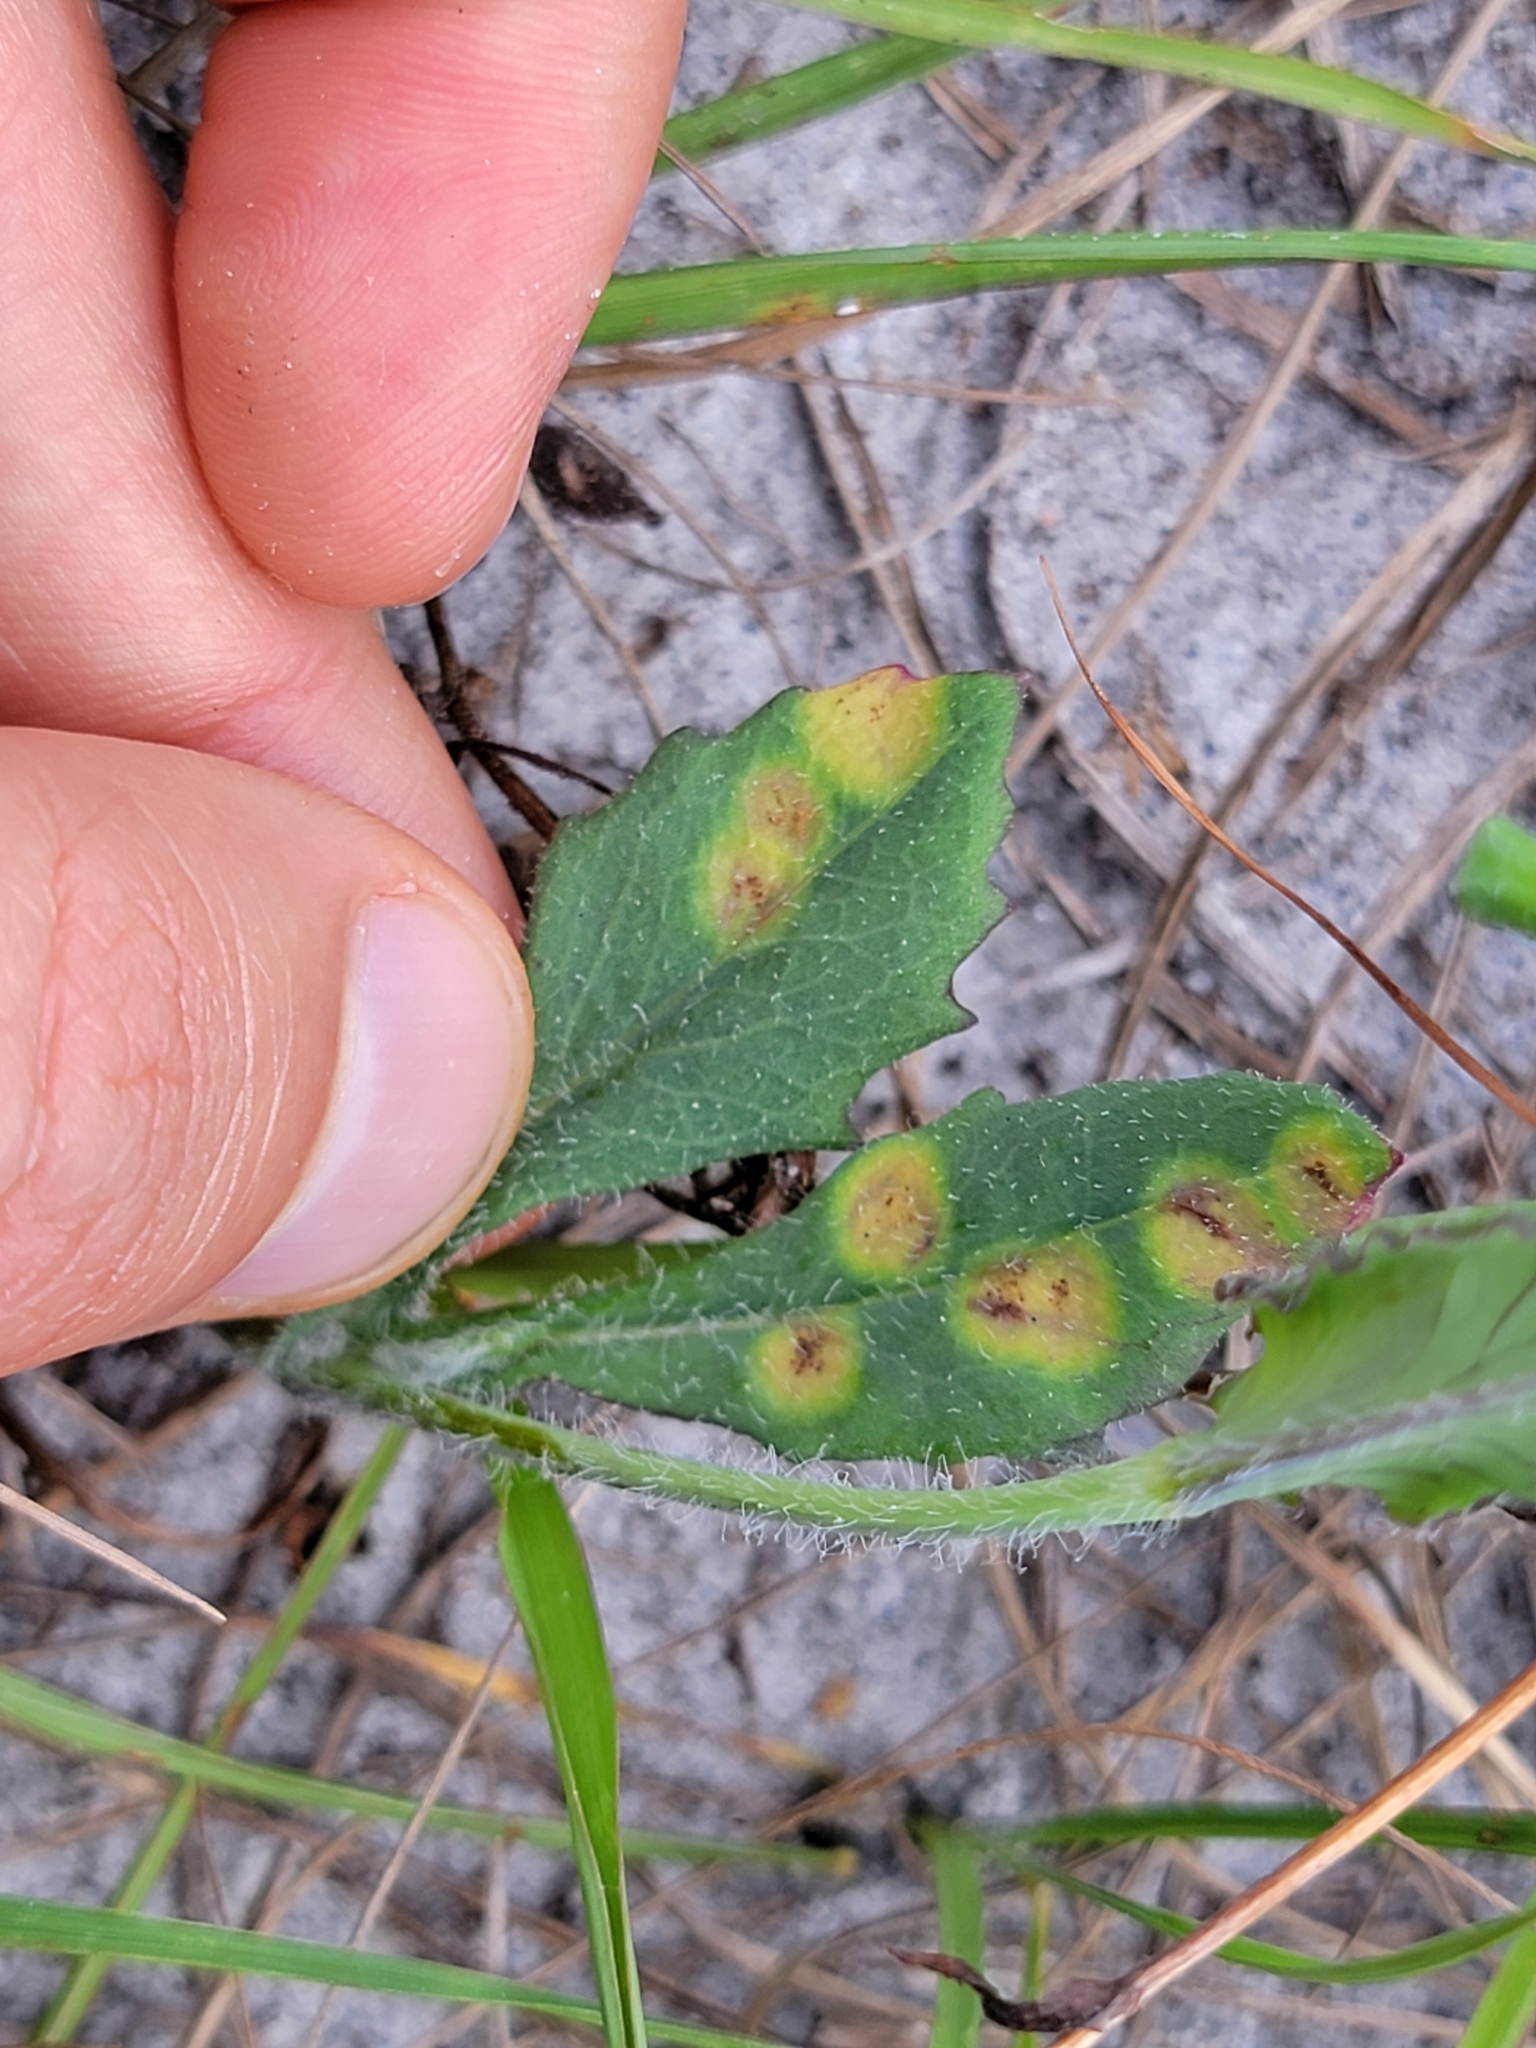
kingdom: Plantae
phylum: Tracheophyta
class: Magnoliopsida
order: Asterales
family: Asteraceae
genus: Emilia
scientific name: Emilia fosbergii
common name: Florida tasselflower
